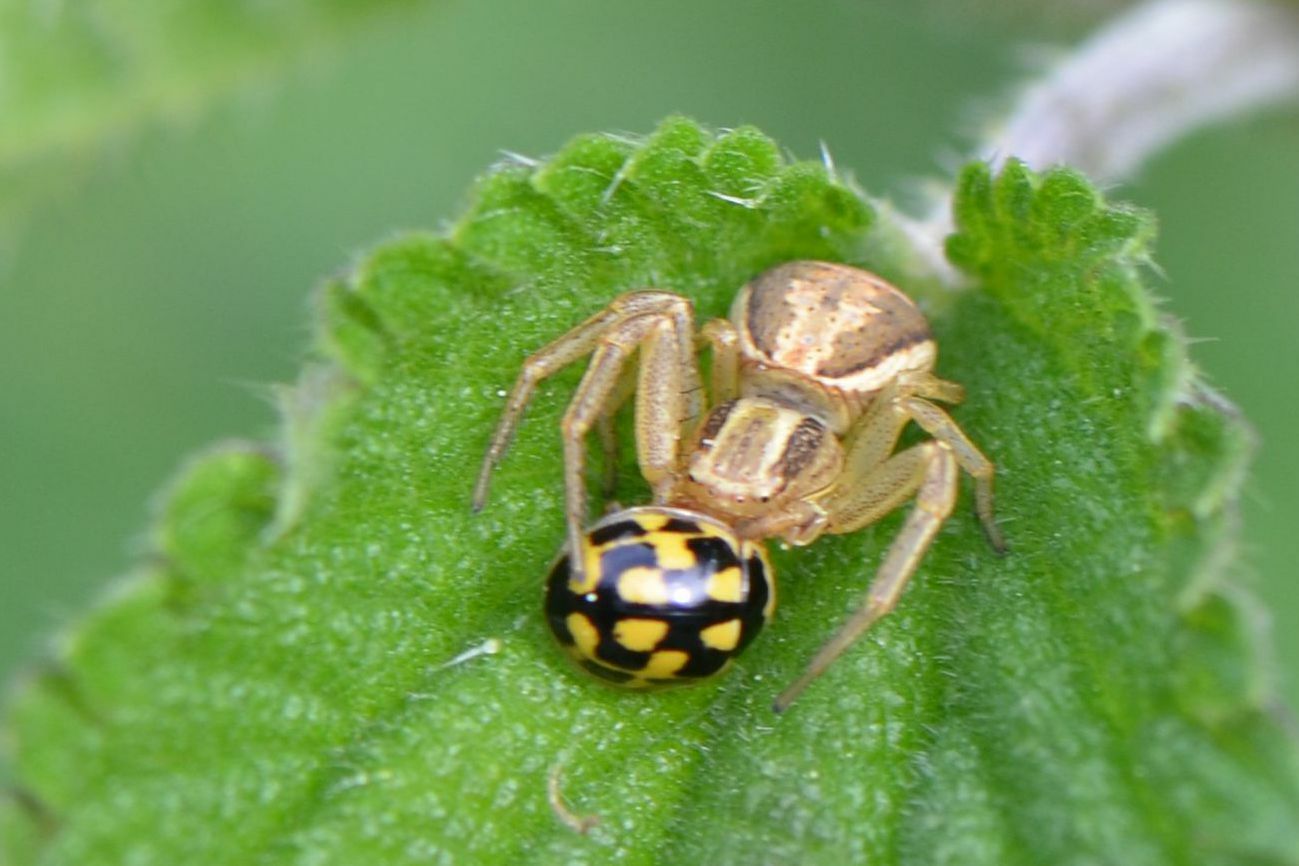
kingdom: Animalia
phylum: Arthropoda
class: Arachnida
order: Araneae
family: Thomisidae
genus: Xysticus
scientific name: Xysticus ulmi
